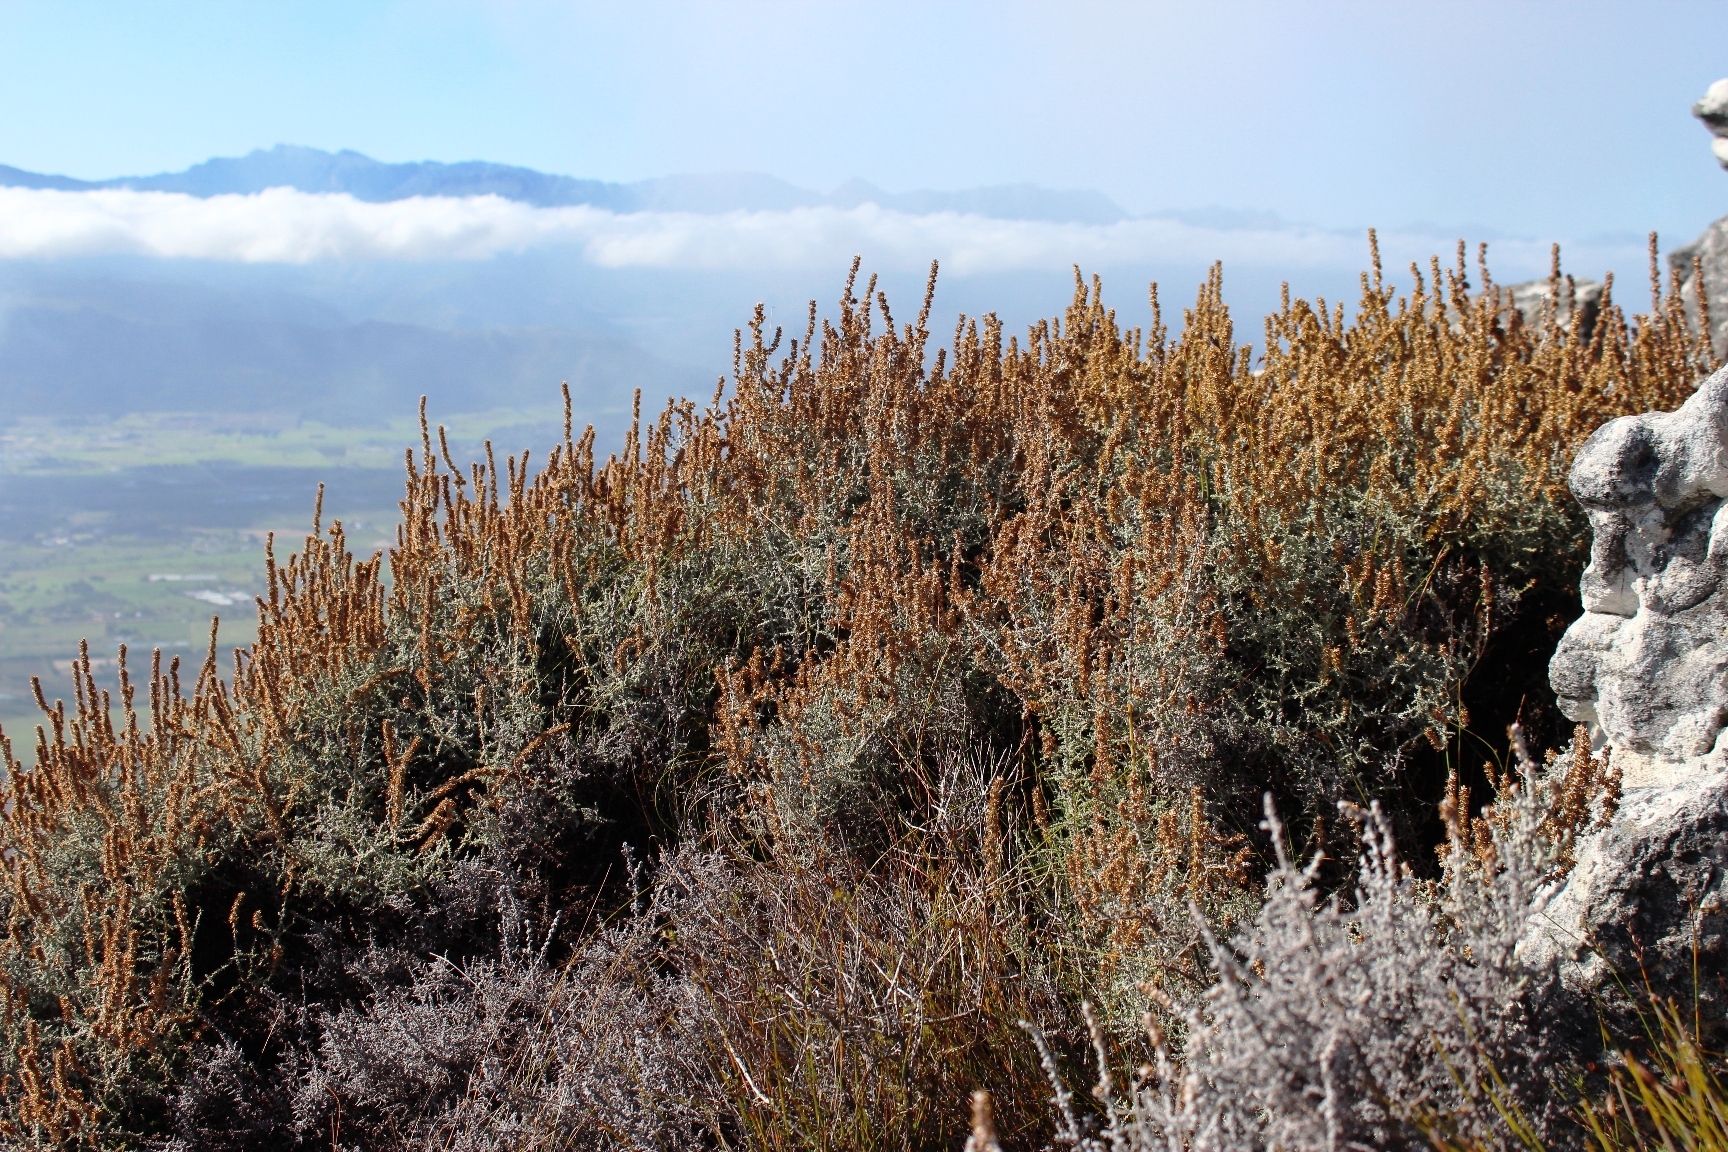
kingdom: Plantae
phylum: Tracheophyta
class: Magnoliopsida
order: Asterales
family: Asteraceae
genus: Seriphium
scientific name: Seriphium plumosum
